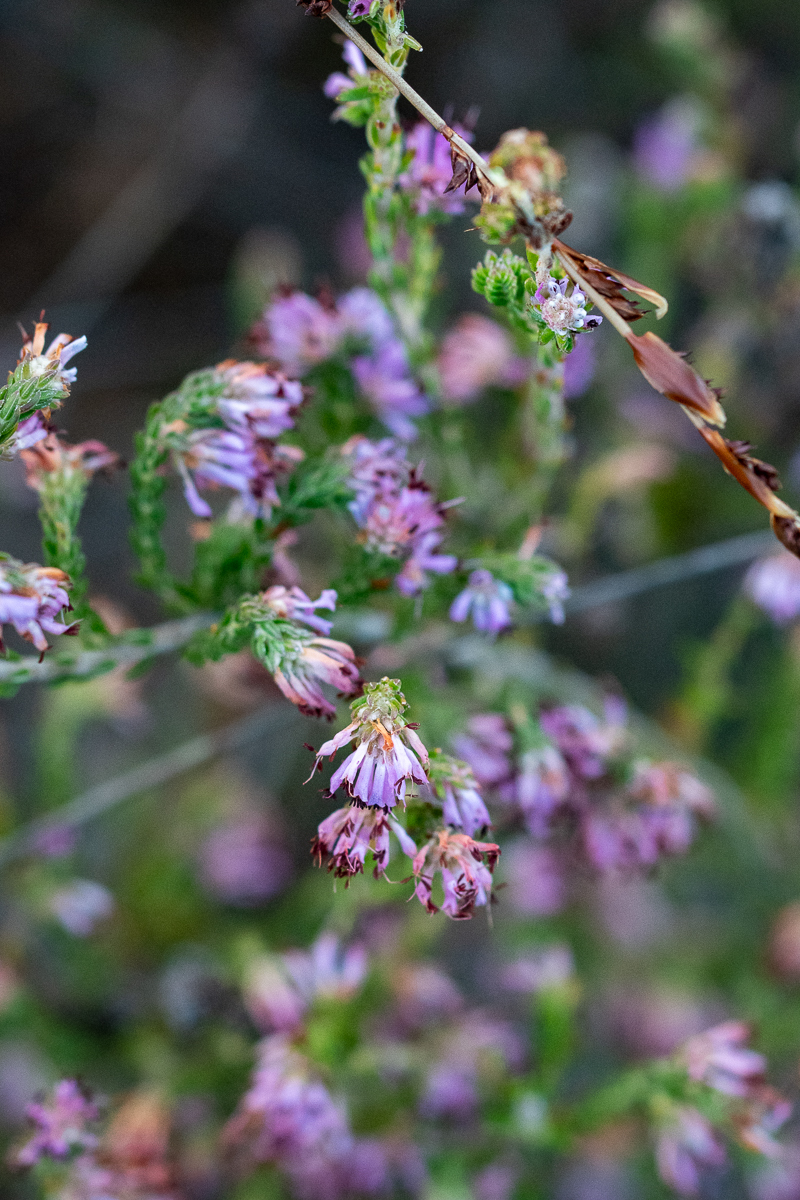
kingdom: Plantae
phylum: Tracheophyta
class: Magnoliopsida
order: Ericales
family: Ericaceae
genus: Erica
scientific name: Erica labialis
